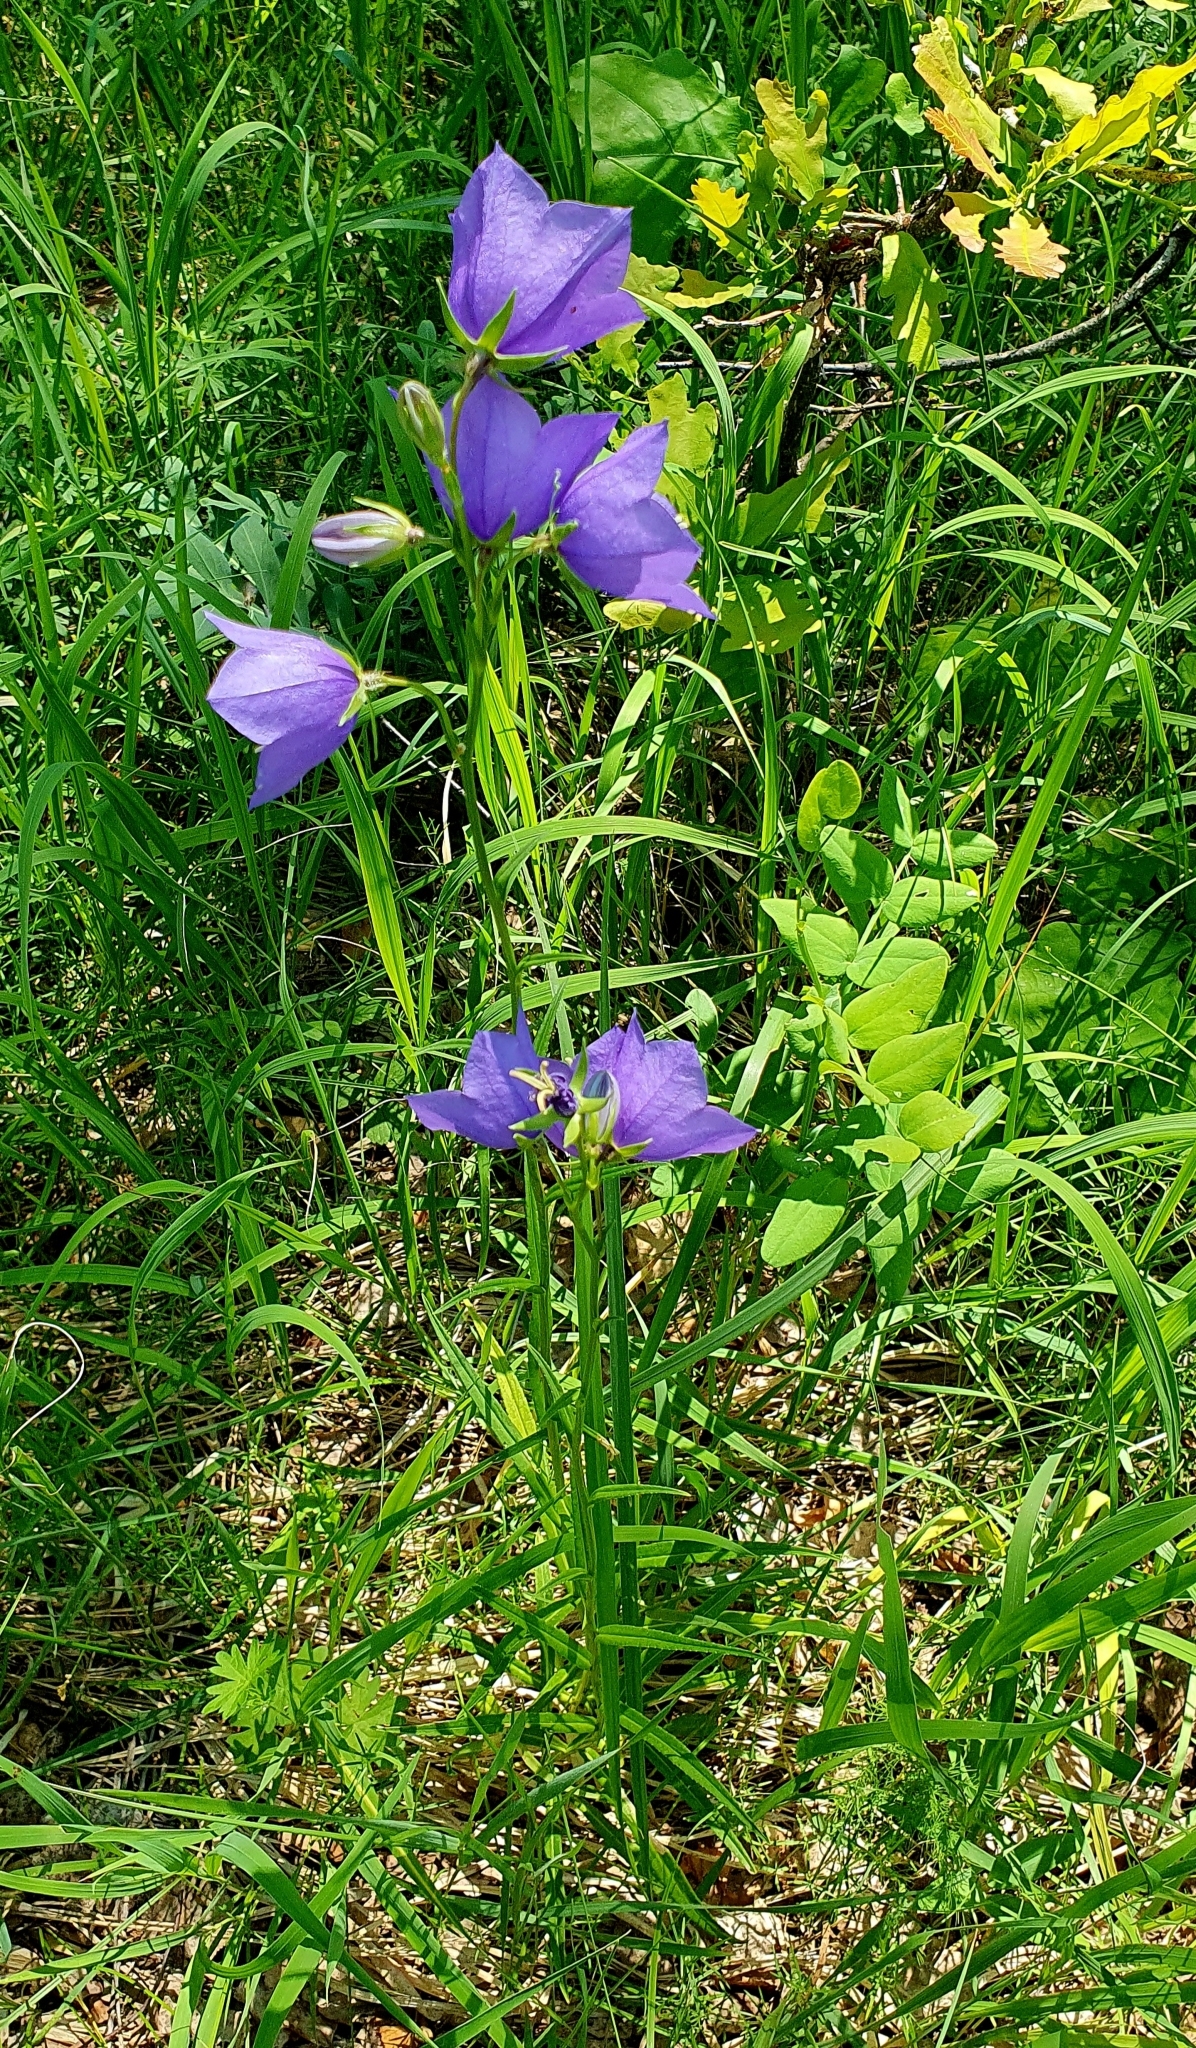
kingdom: Plantae
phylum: Tracheophyta
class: Magnoliopsida
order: Asterales
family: Campanulaceae
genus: Campanula
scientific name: Campanula persicifolia
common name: Peach-leaved bellflower
